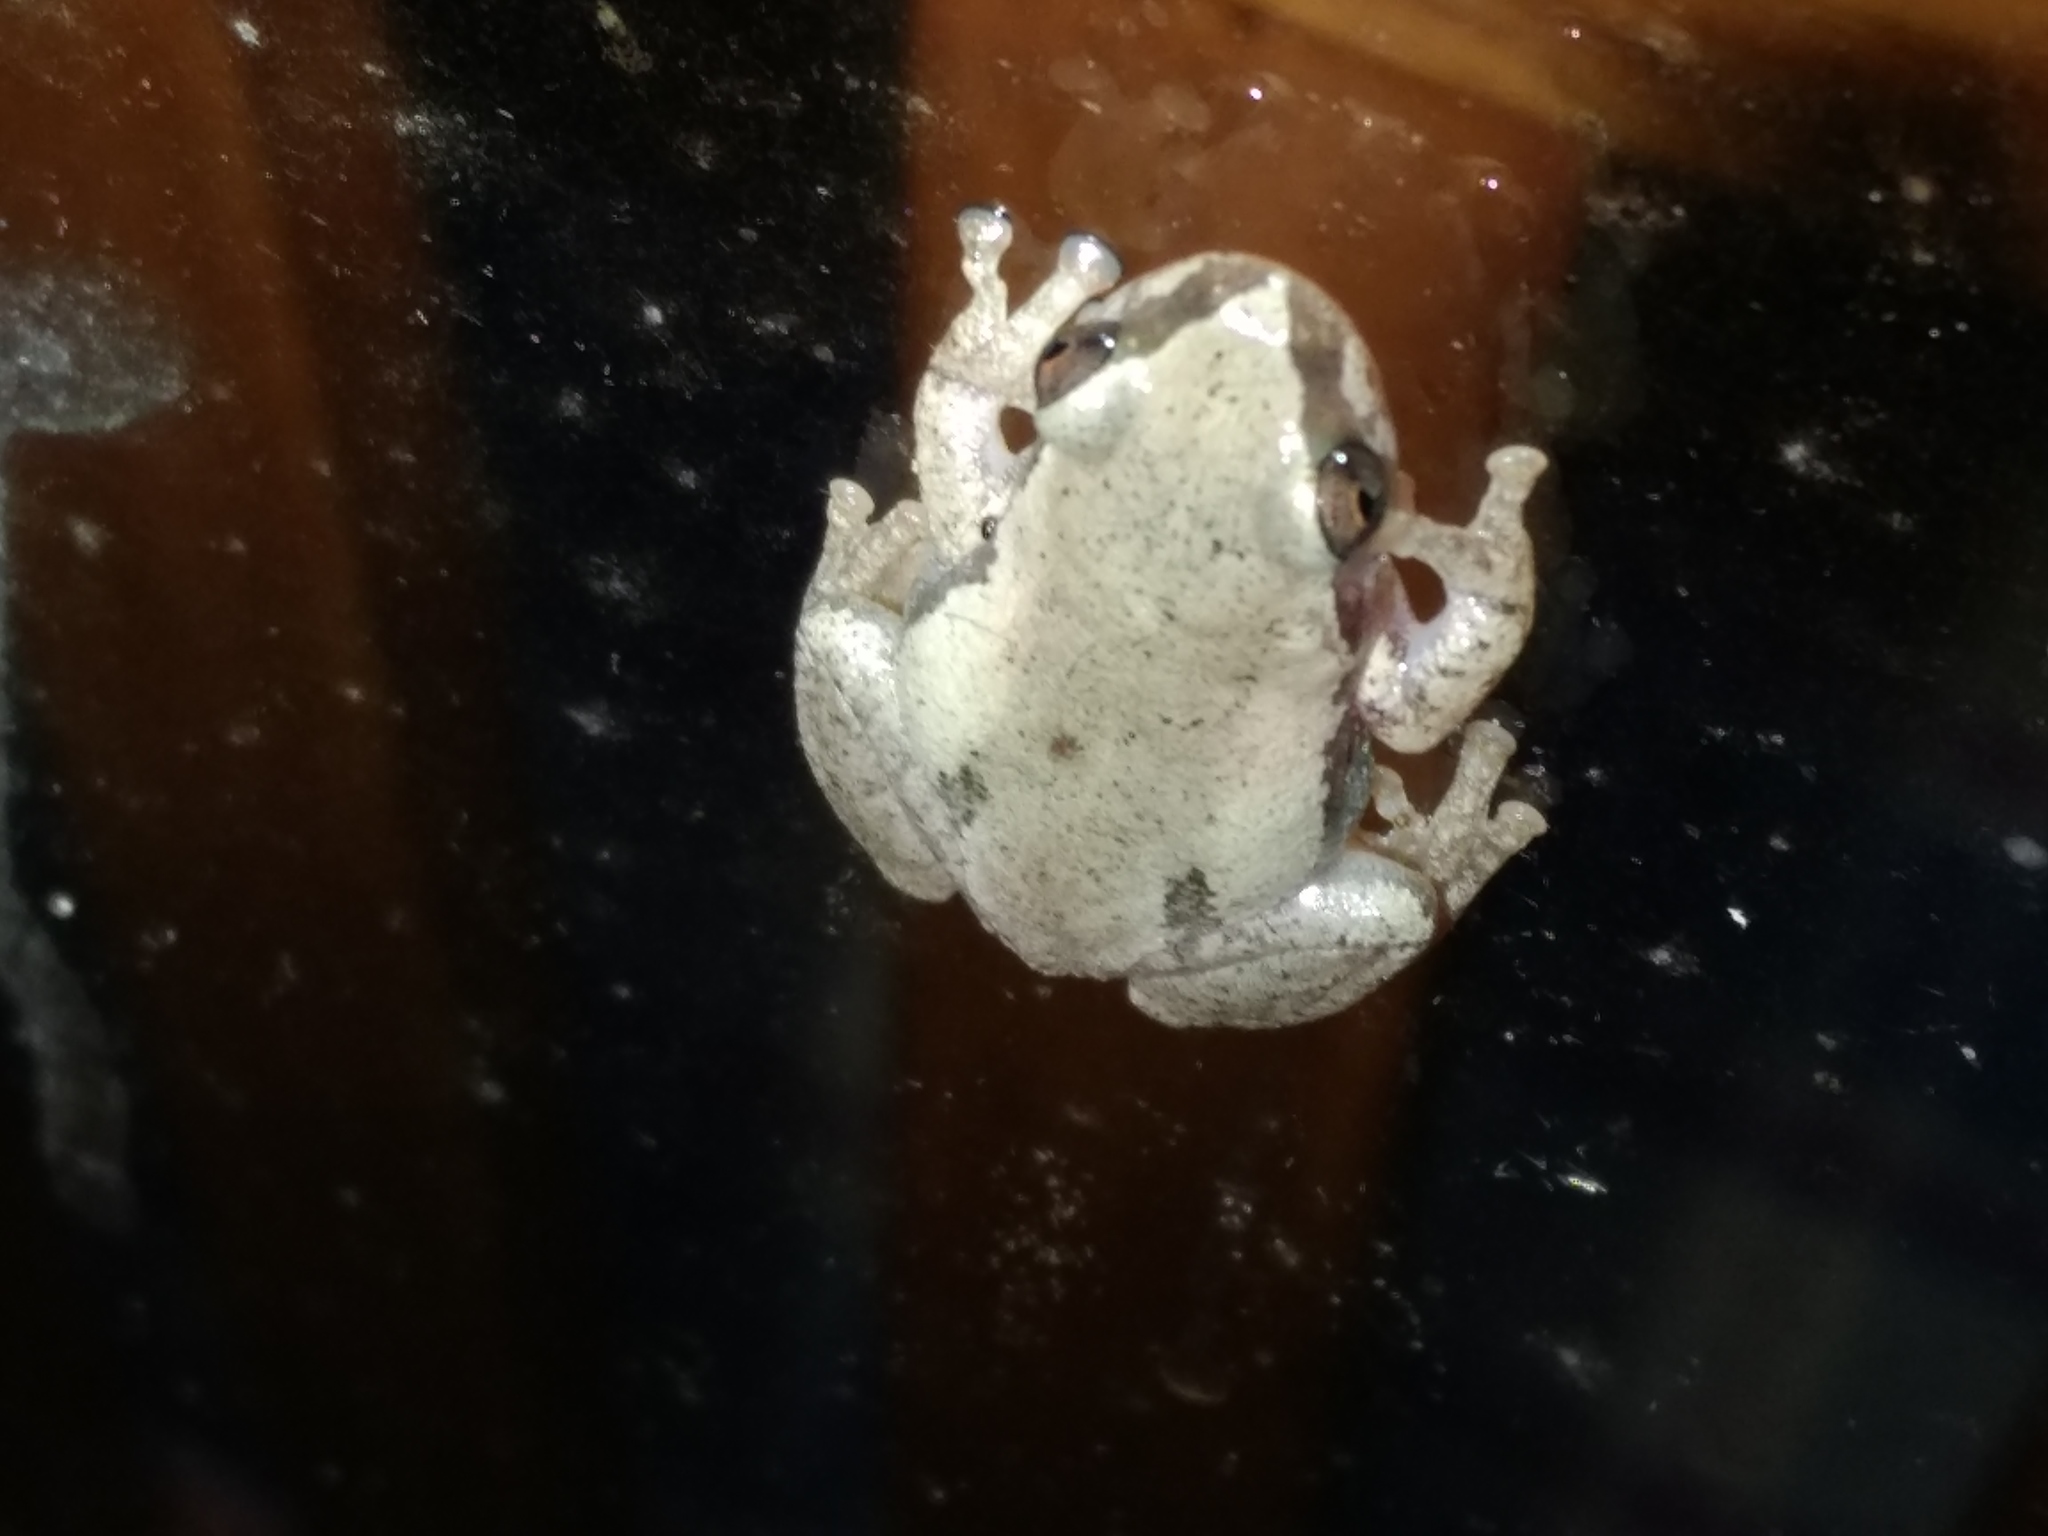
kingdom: Animalia
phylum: Chordata
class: Amphibia
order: Anura
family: Pelodryadidae
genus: Litoria
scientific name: Litoria rubella
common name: Desert tree frog
